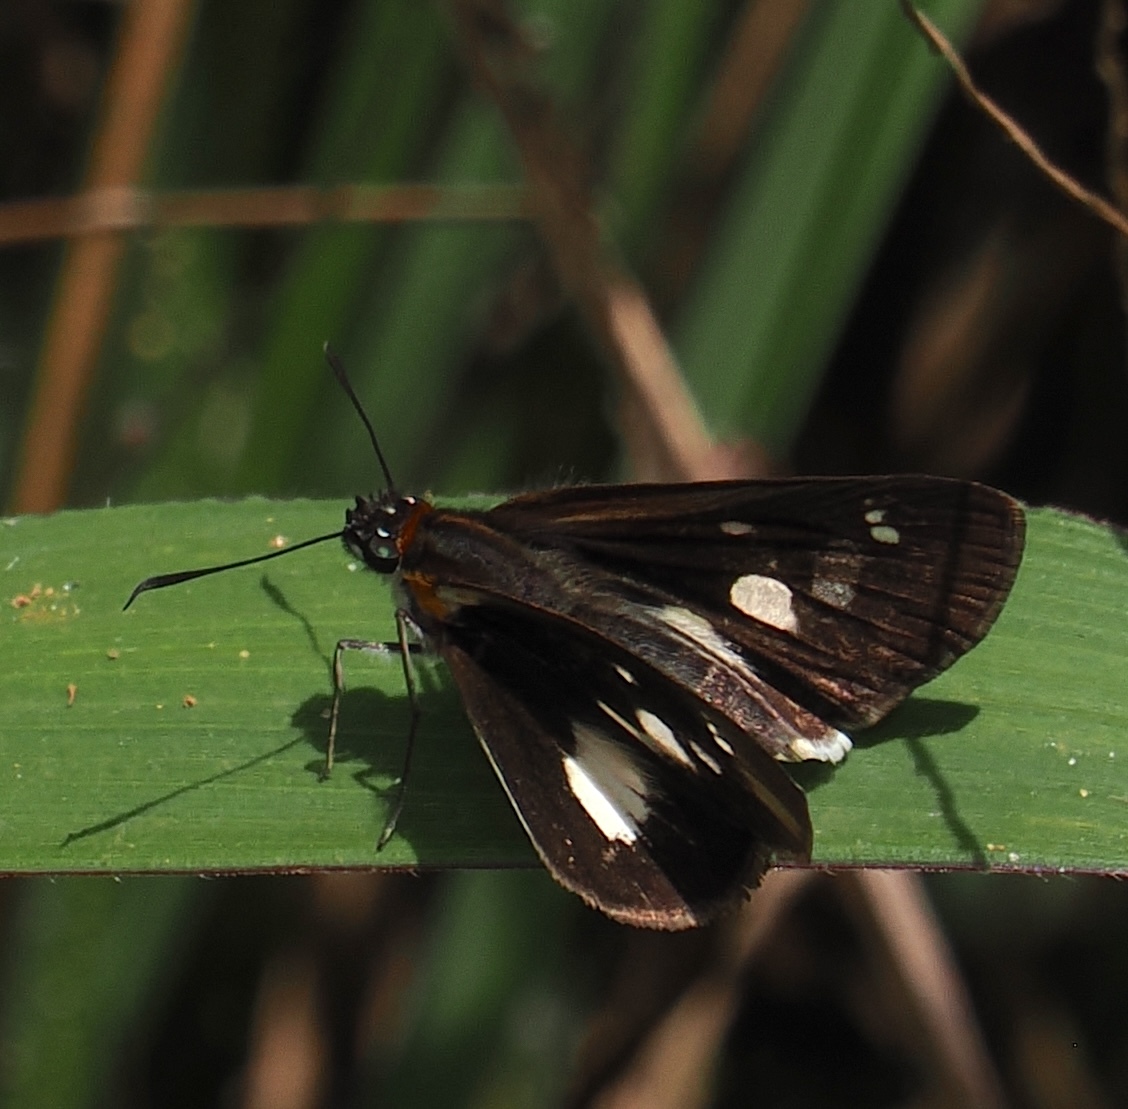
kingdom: Animalia
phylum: Arthropoda
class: Insecta
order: Lepidoptera
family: Hesperiidae
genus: Troyus
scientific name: Troyus
